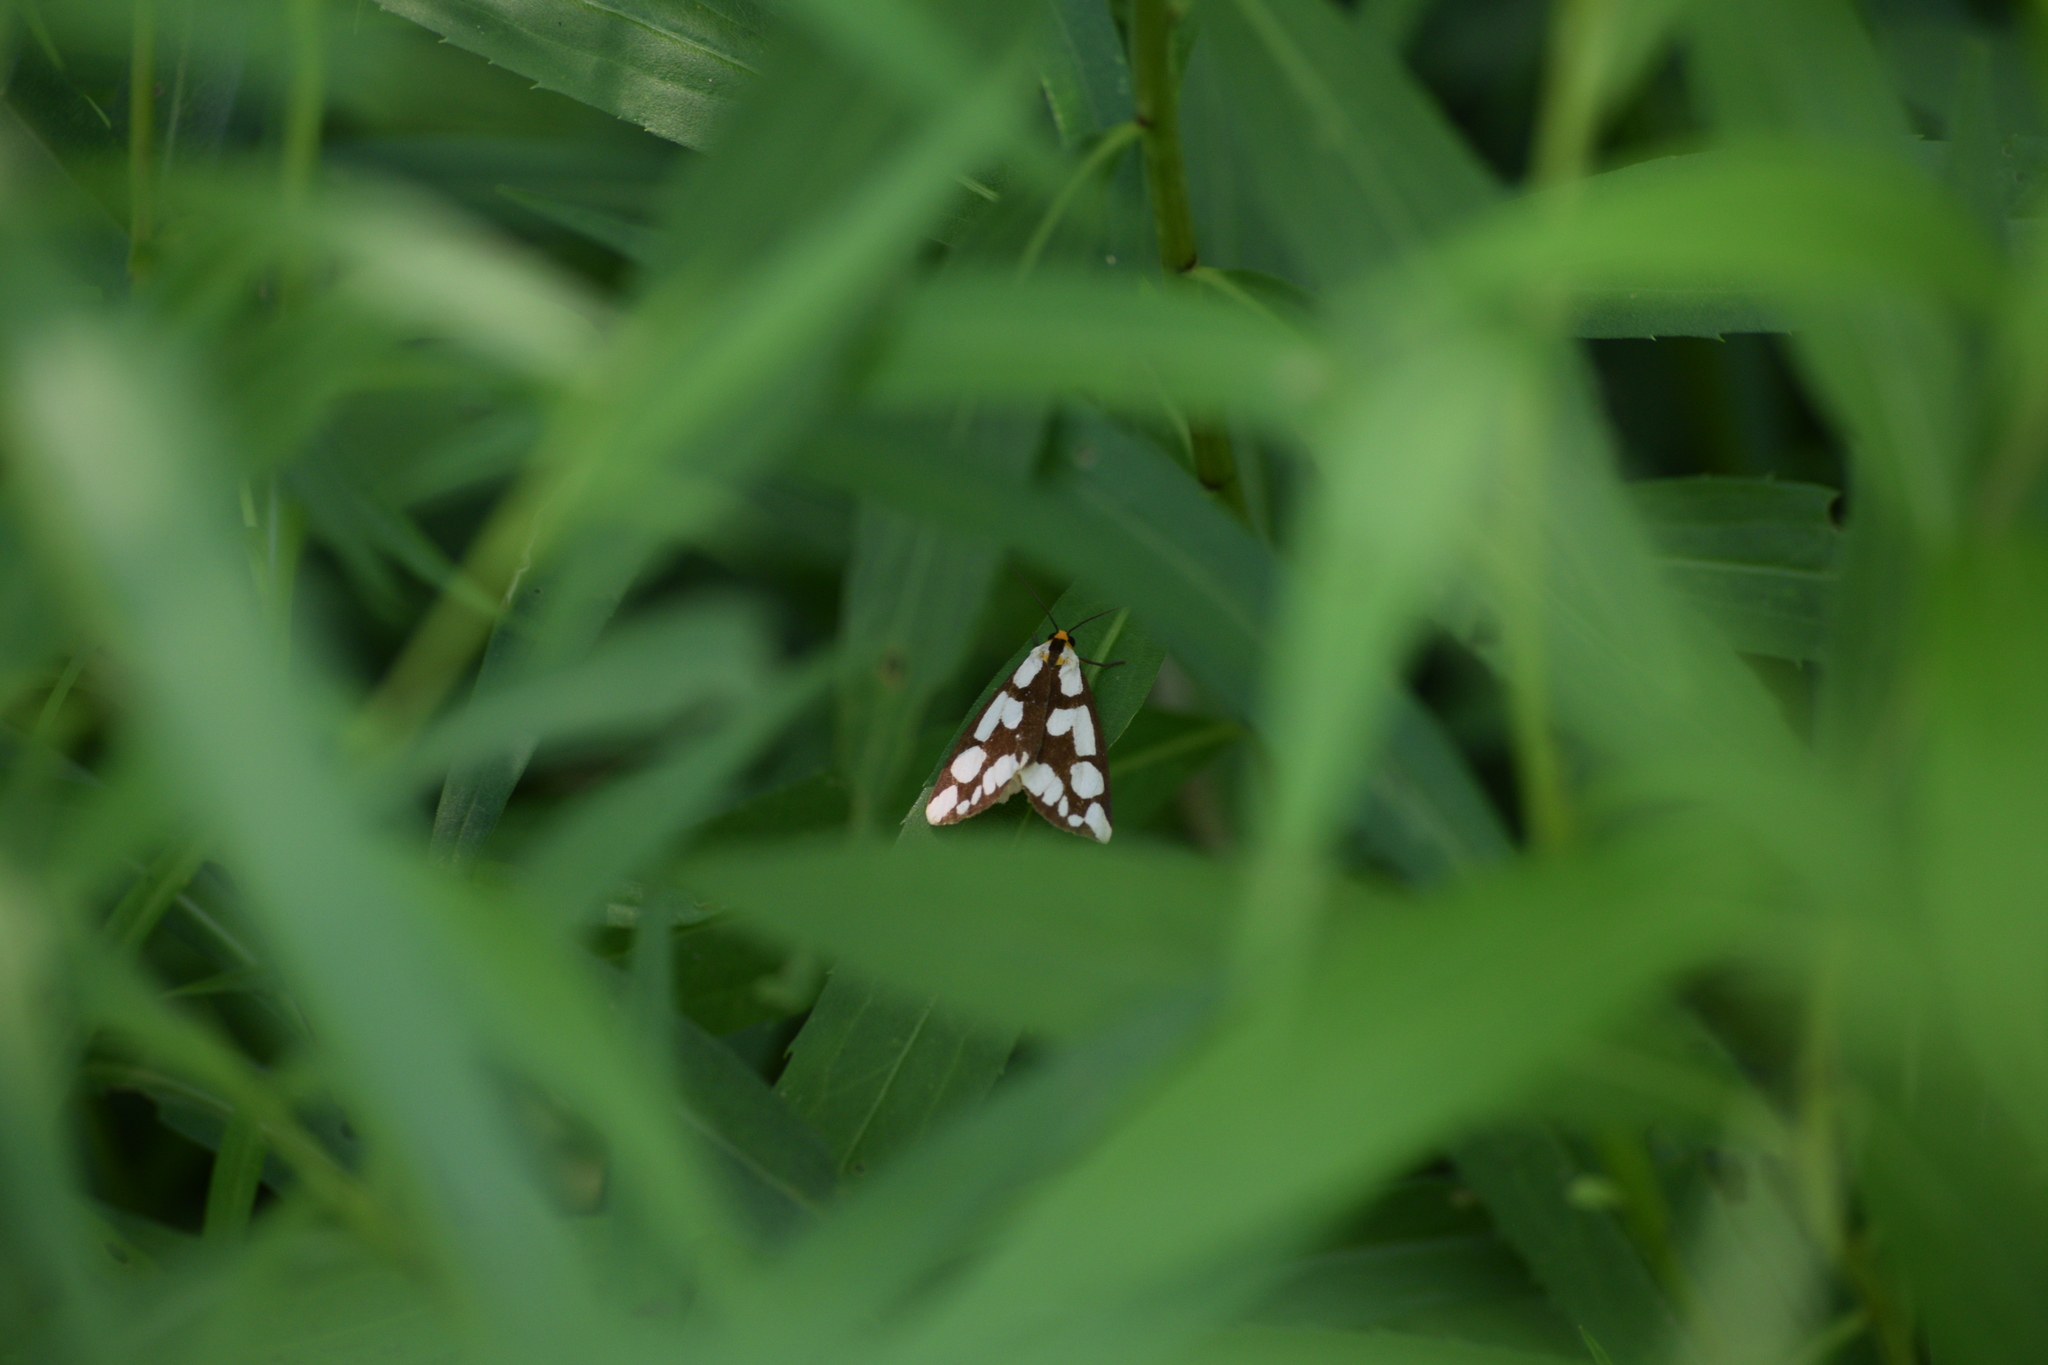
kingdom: Animalia
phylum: Arthropoda
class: Insecta
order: Lepidoptera
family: Erebidae
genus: Haploa
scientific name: Haploa confusa
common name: Confused haploa moth
